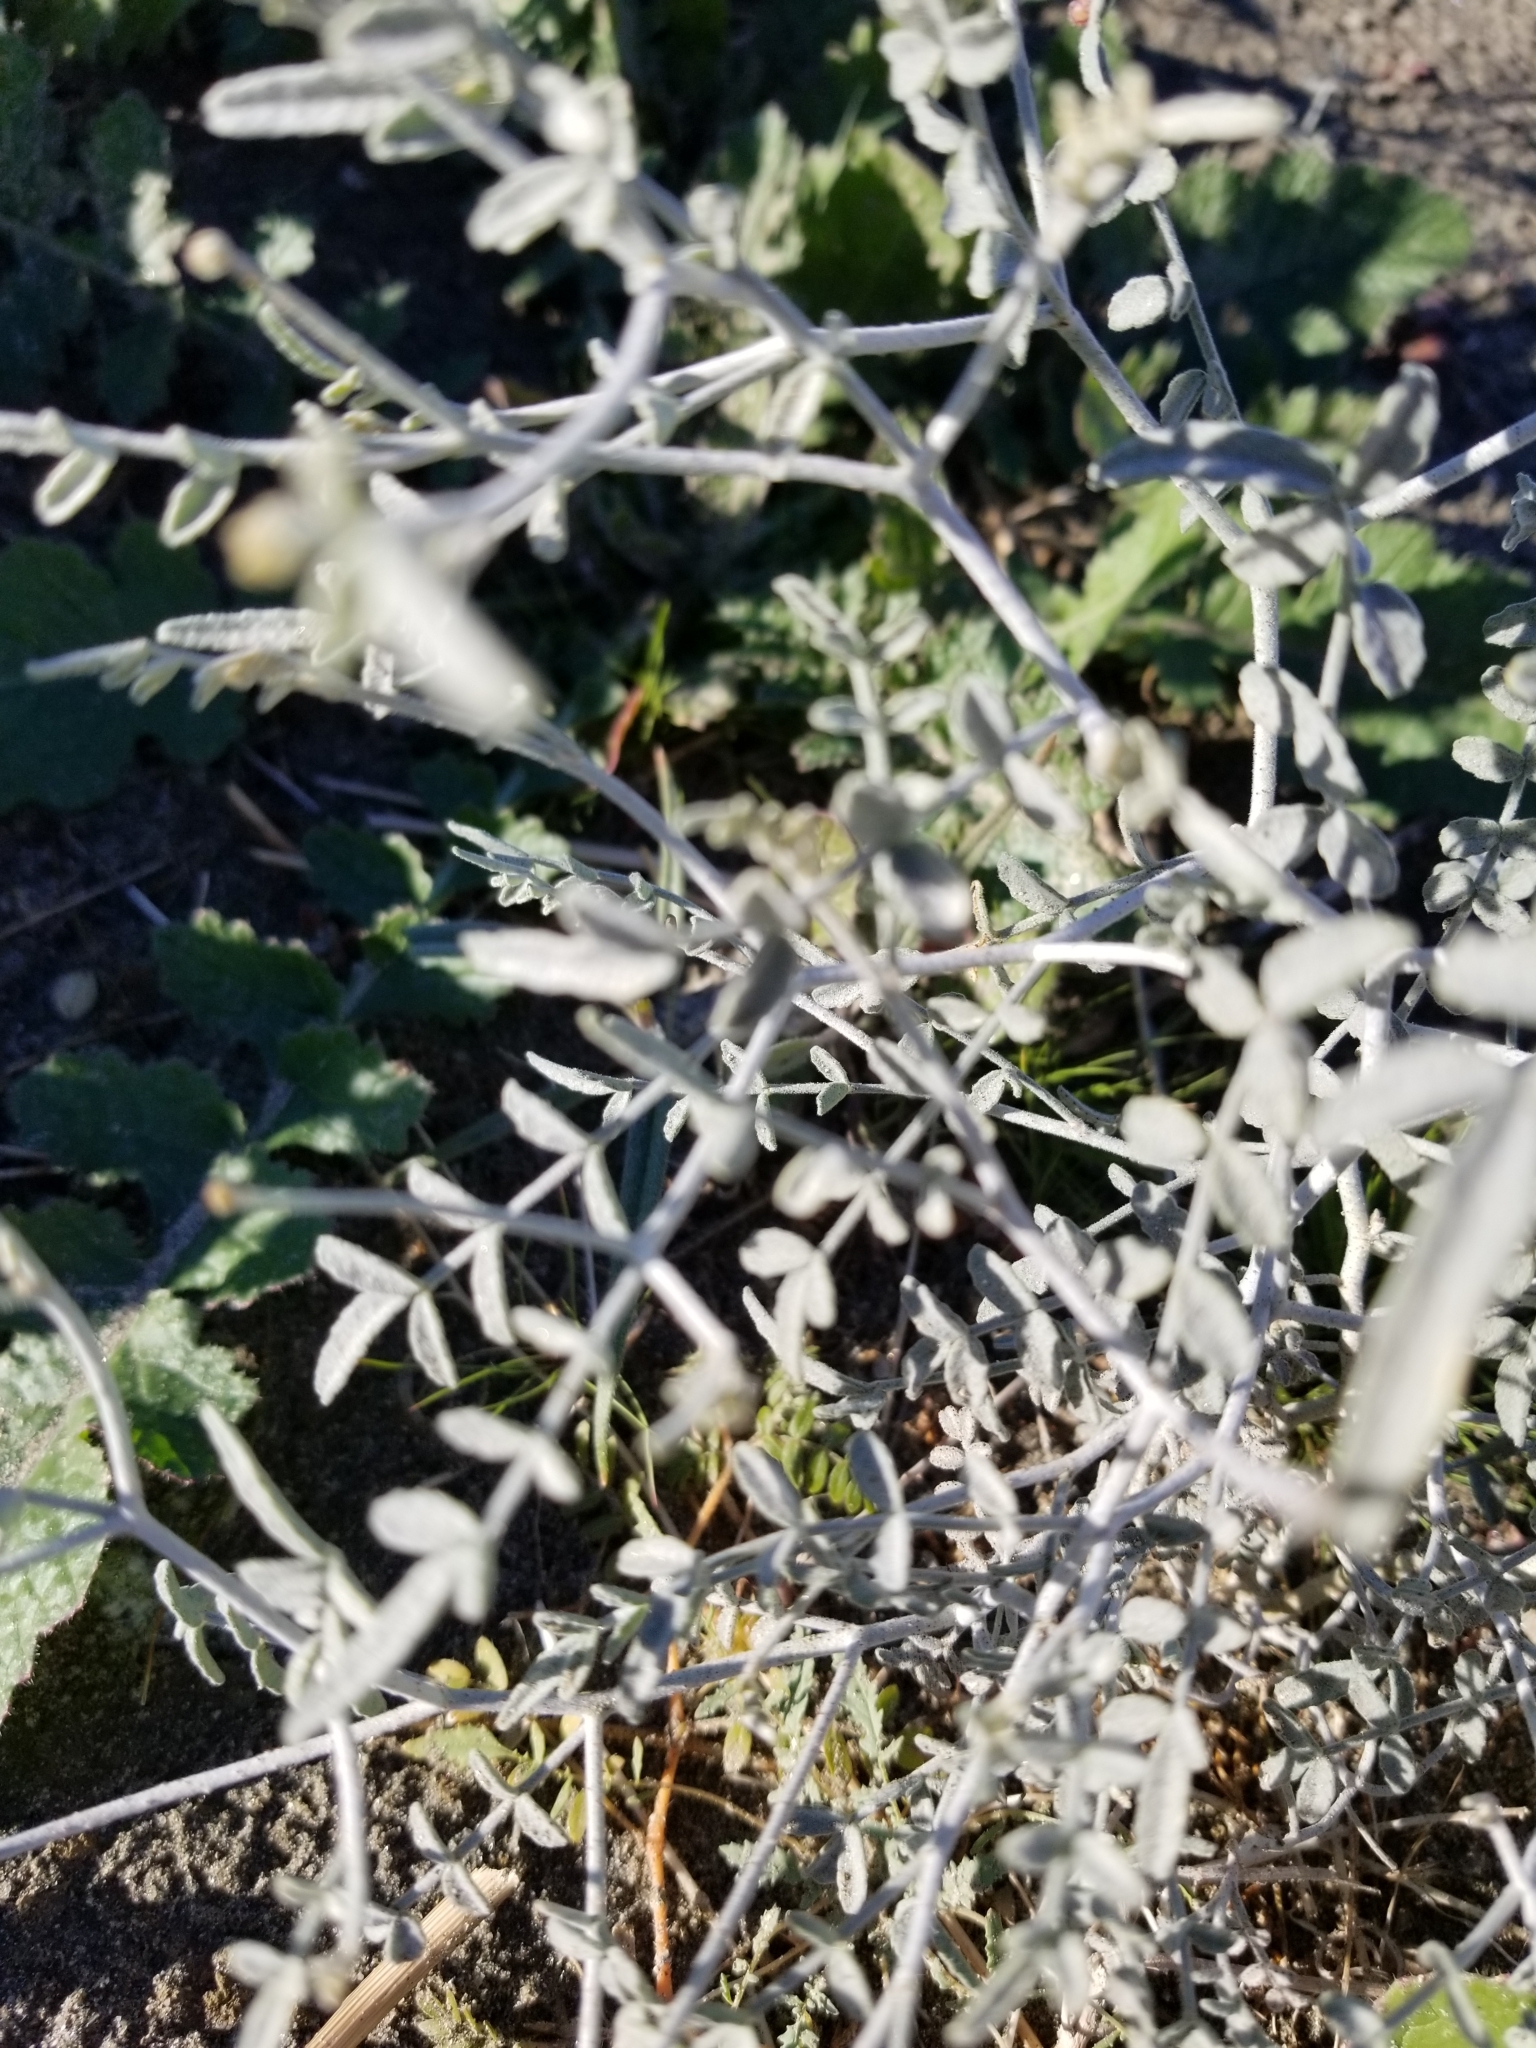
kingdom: Plantae
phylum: Tracheophyta
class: Magnoliopsida
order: Fabales
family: Fabaceae
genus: Psorothamnus
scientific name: Psorothamnus emoryi
